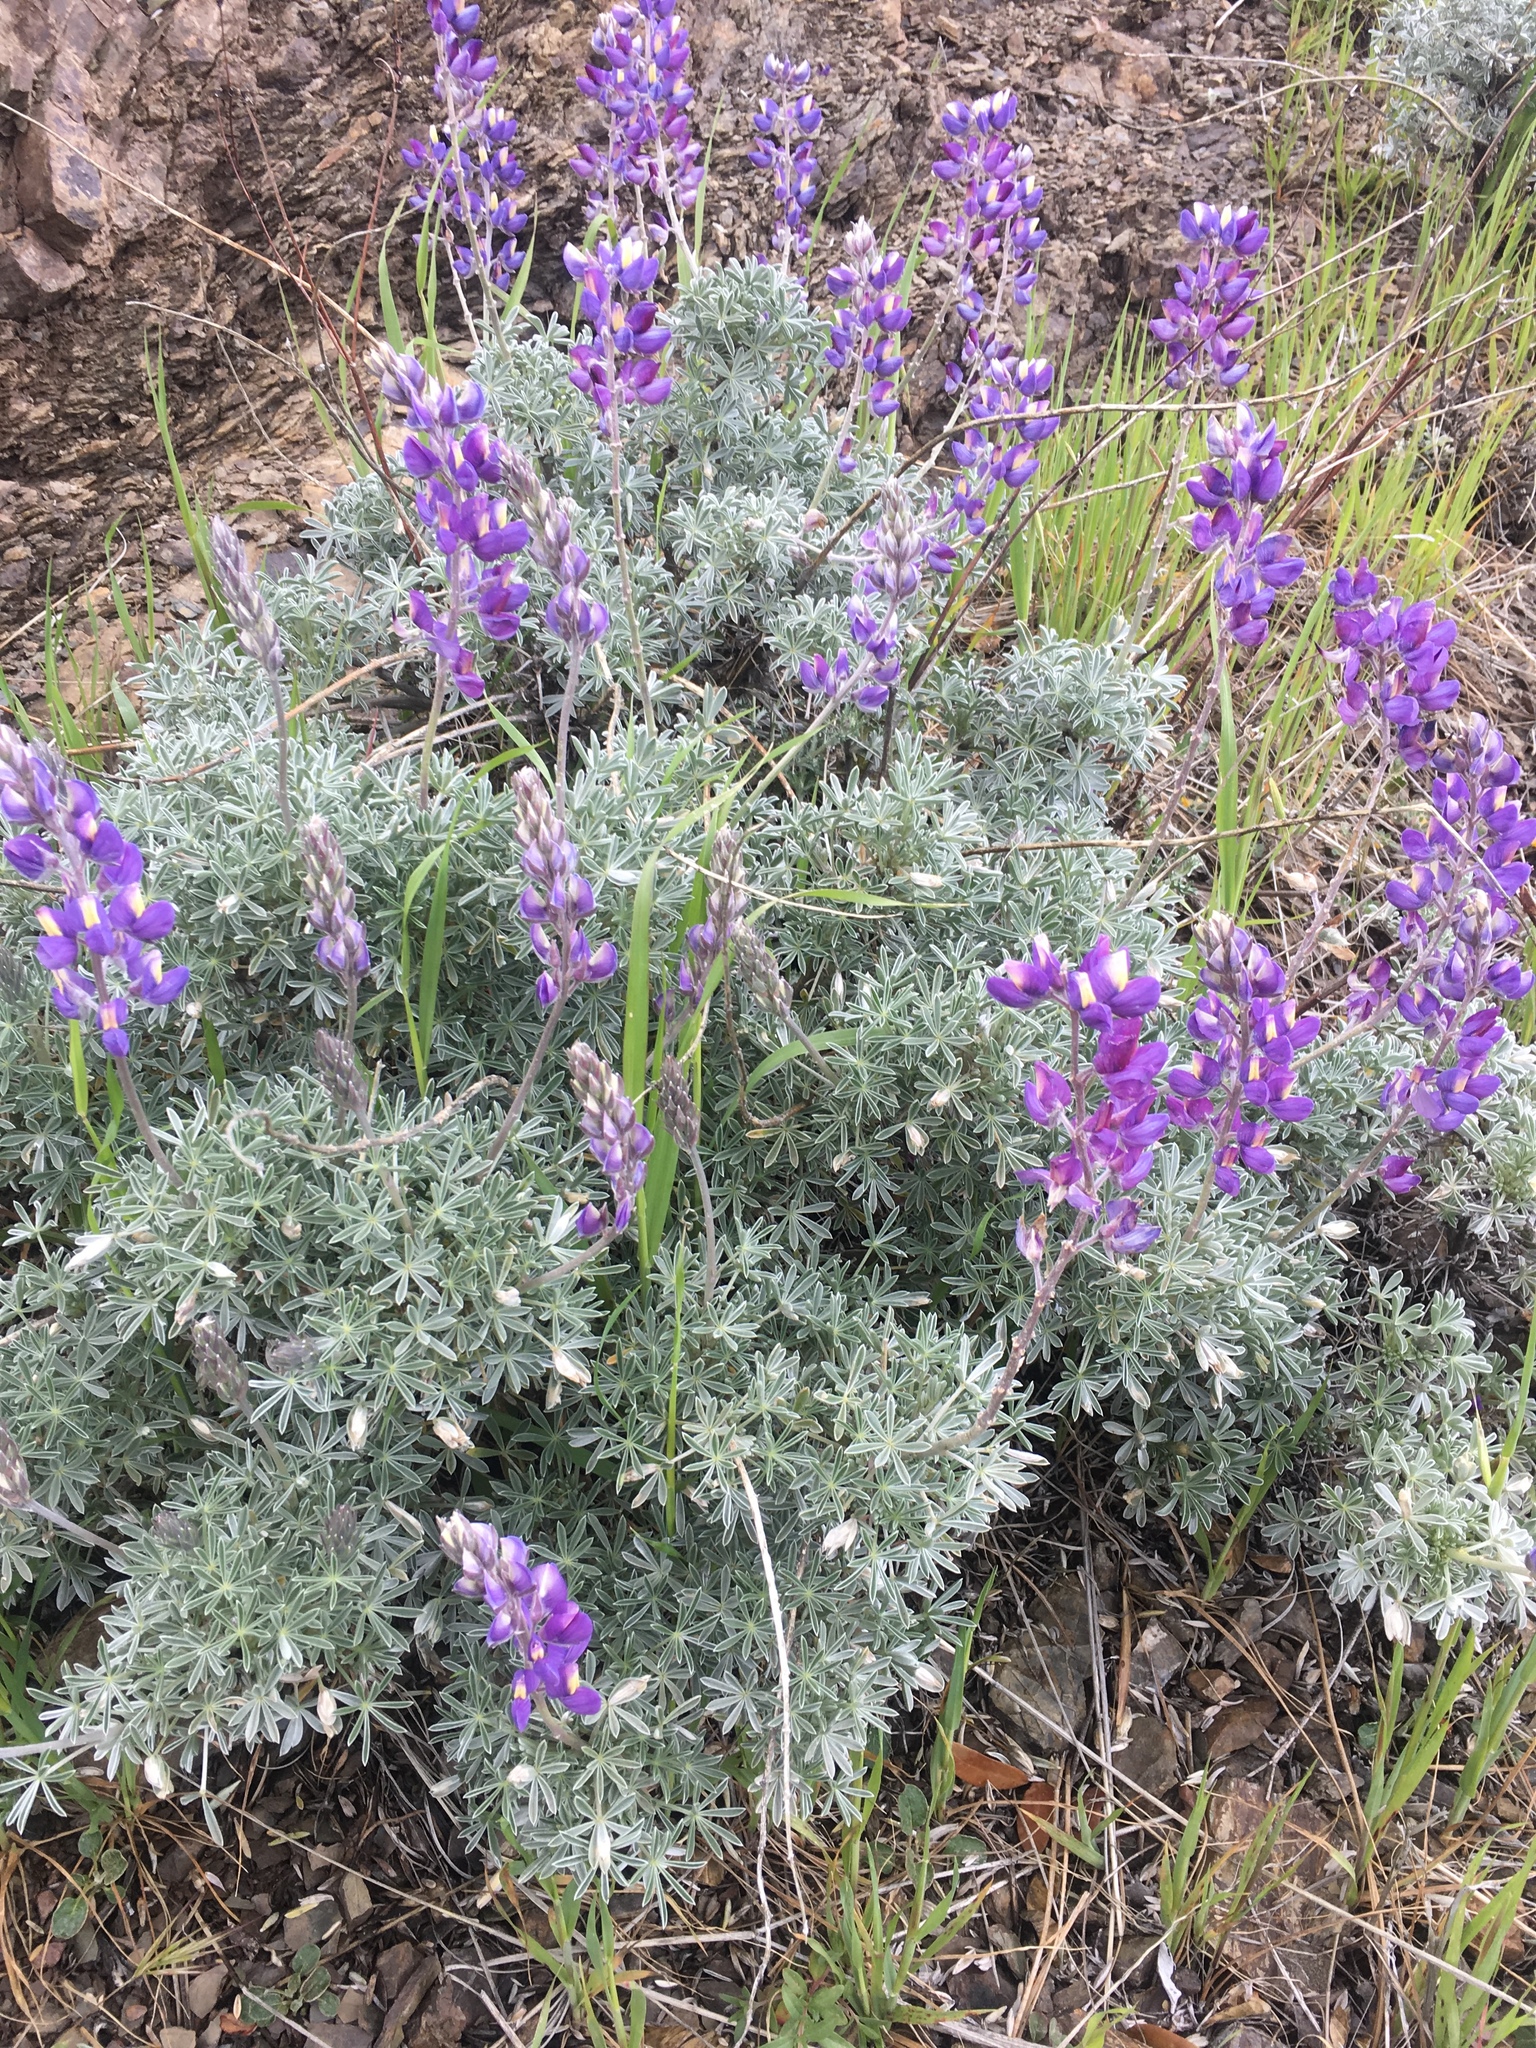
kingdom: Plantae
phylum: Tracheophyta
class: Magnoliopsida
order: Fabales
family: Fabaceae
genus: Lupinus
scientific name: Lupinus albifrons
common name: Foothill lupine
